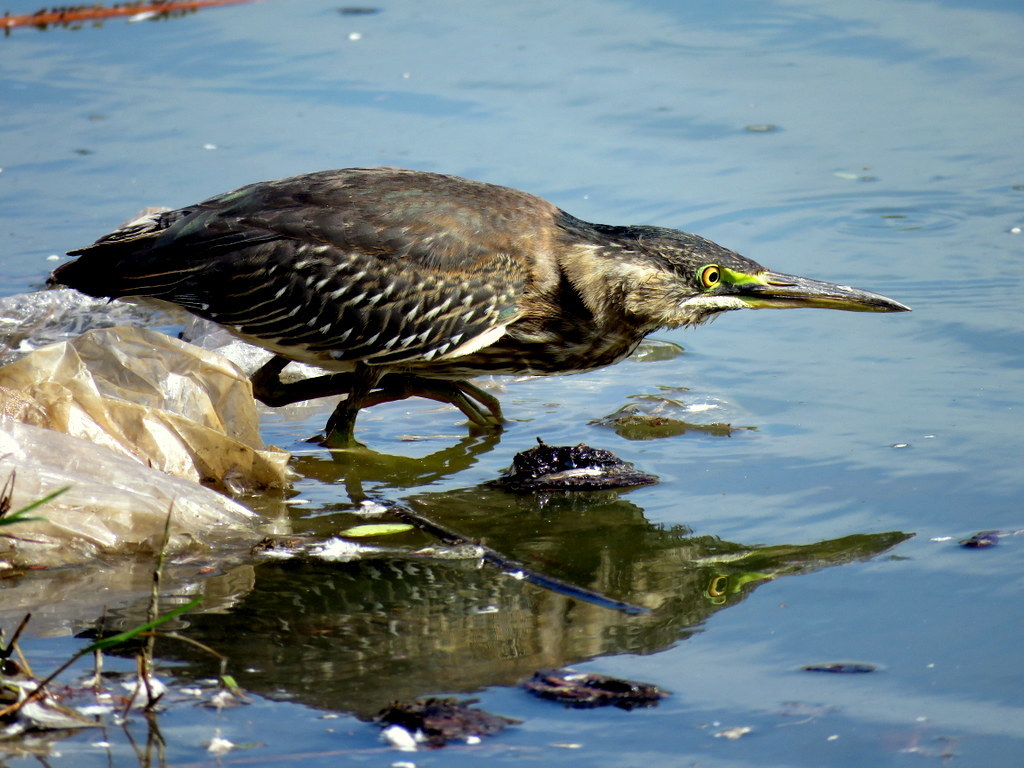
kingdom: Animalia
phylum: Chordata
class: Aves
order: Pelecaniformes
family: Ardeidae
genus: Butorides
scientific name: Butorides striata
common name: Striated heron
